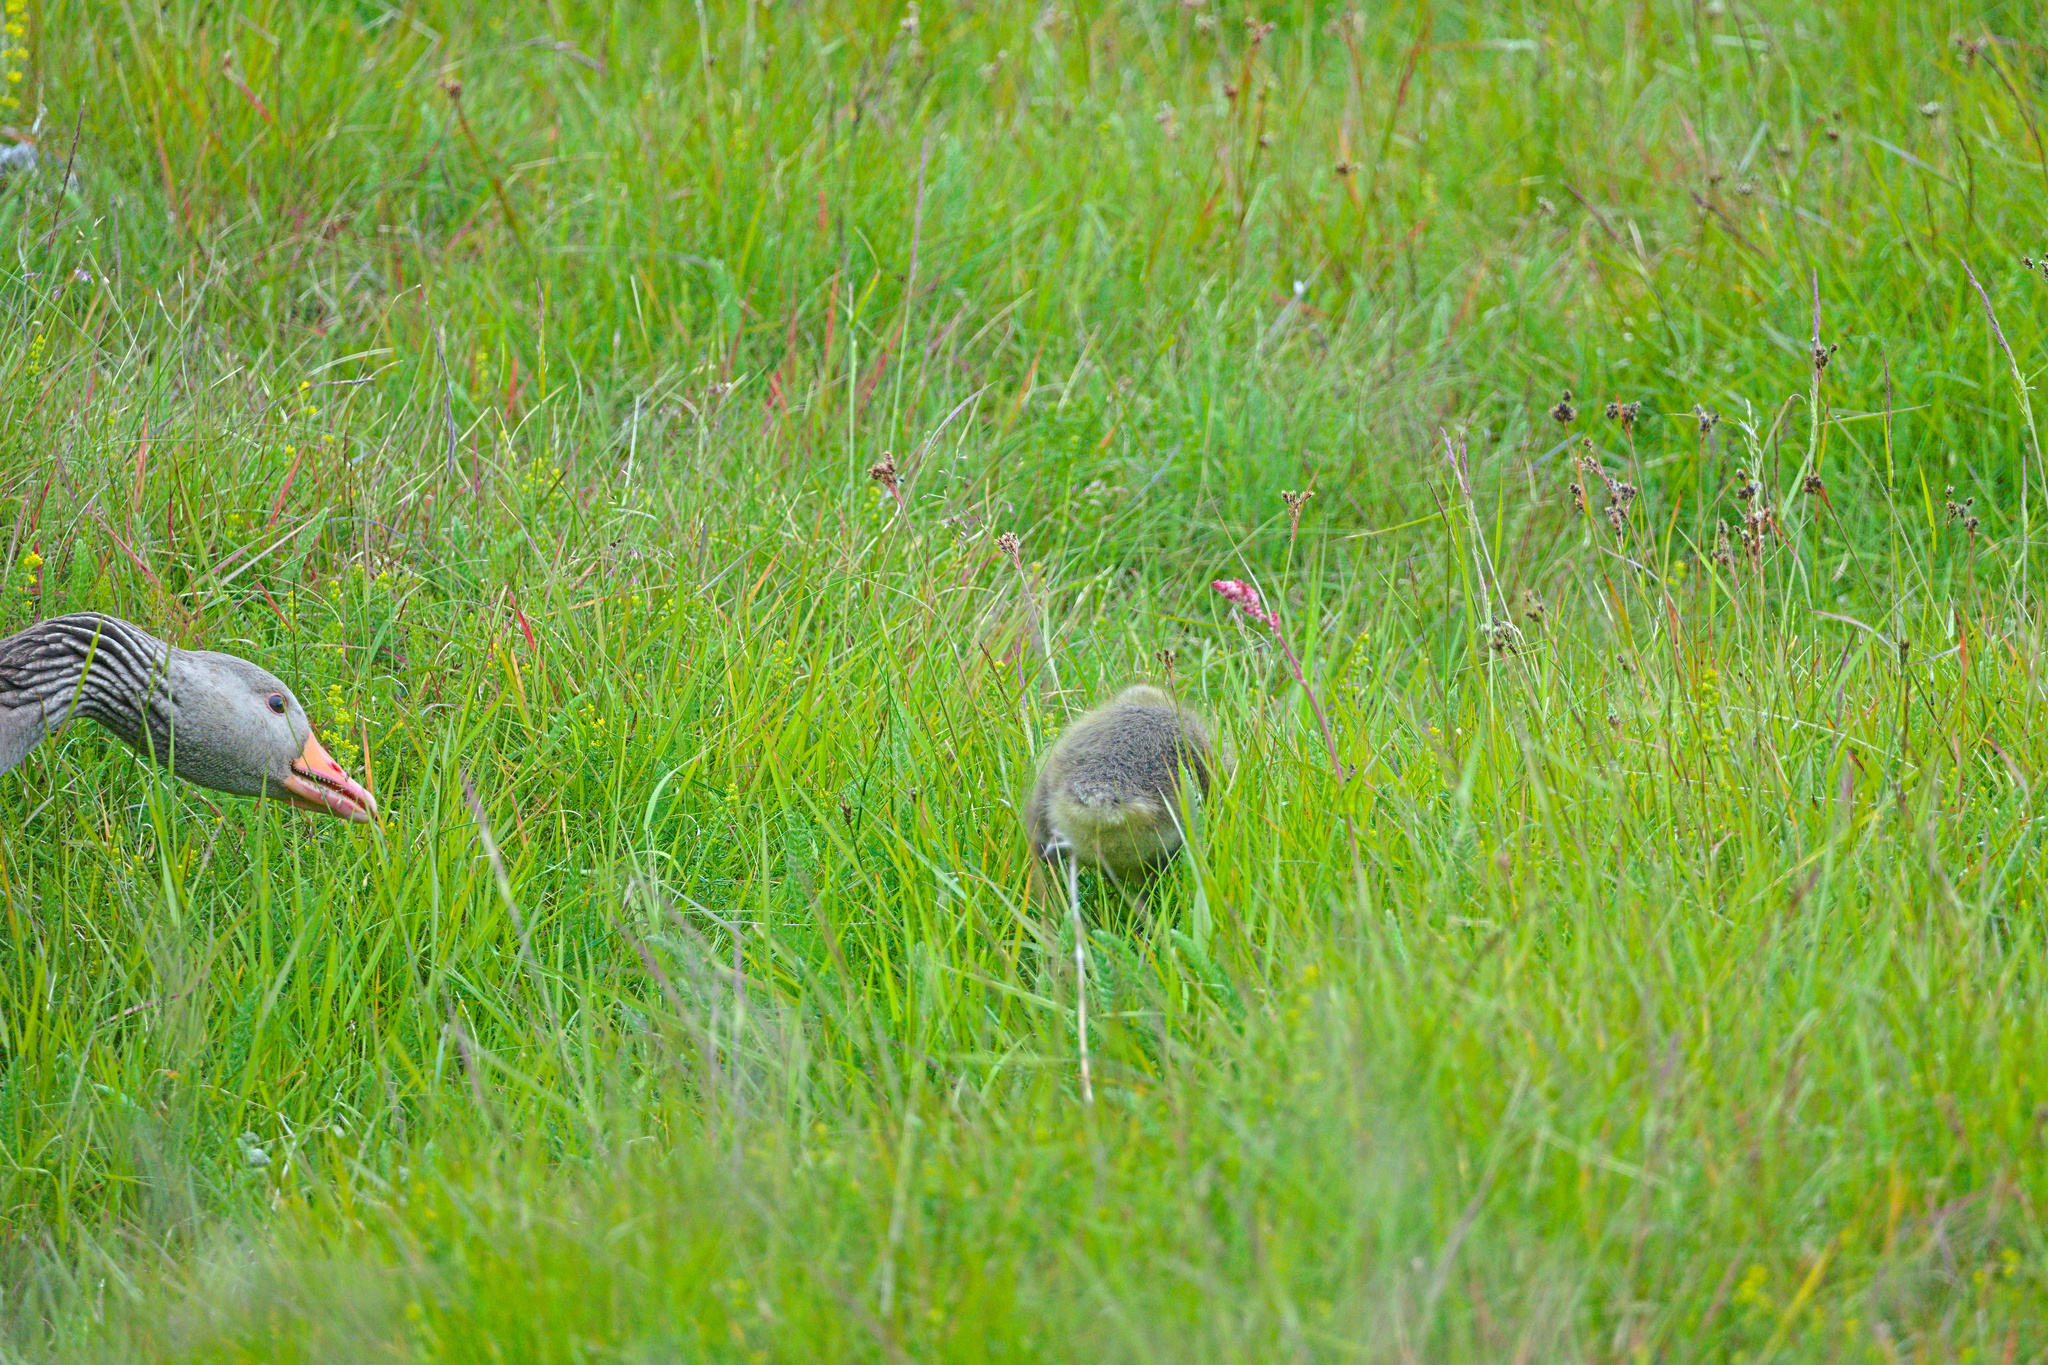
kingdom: Animalia
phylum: Chordata
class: Aves
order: Anseriformes
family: Anatidae
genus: Anser
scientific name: Anser anser
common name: Greylag goose
